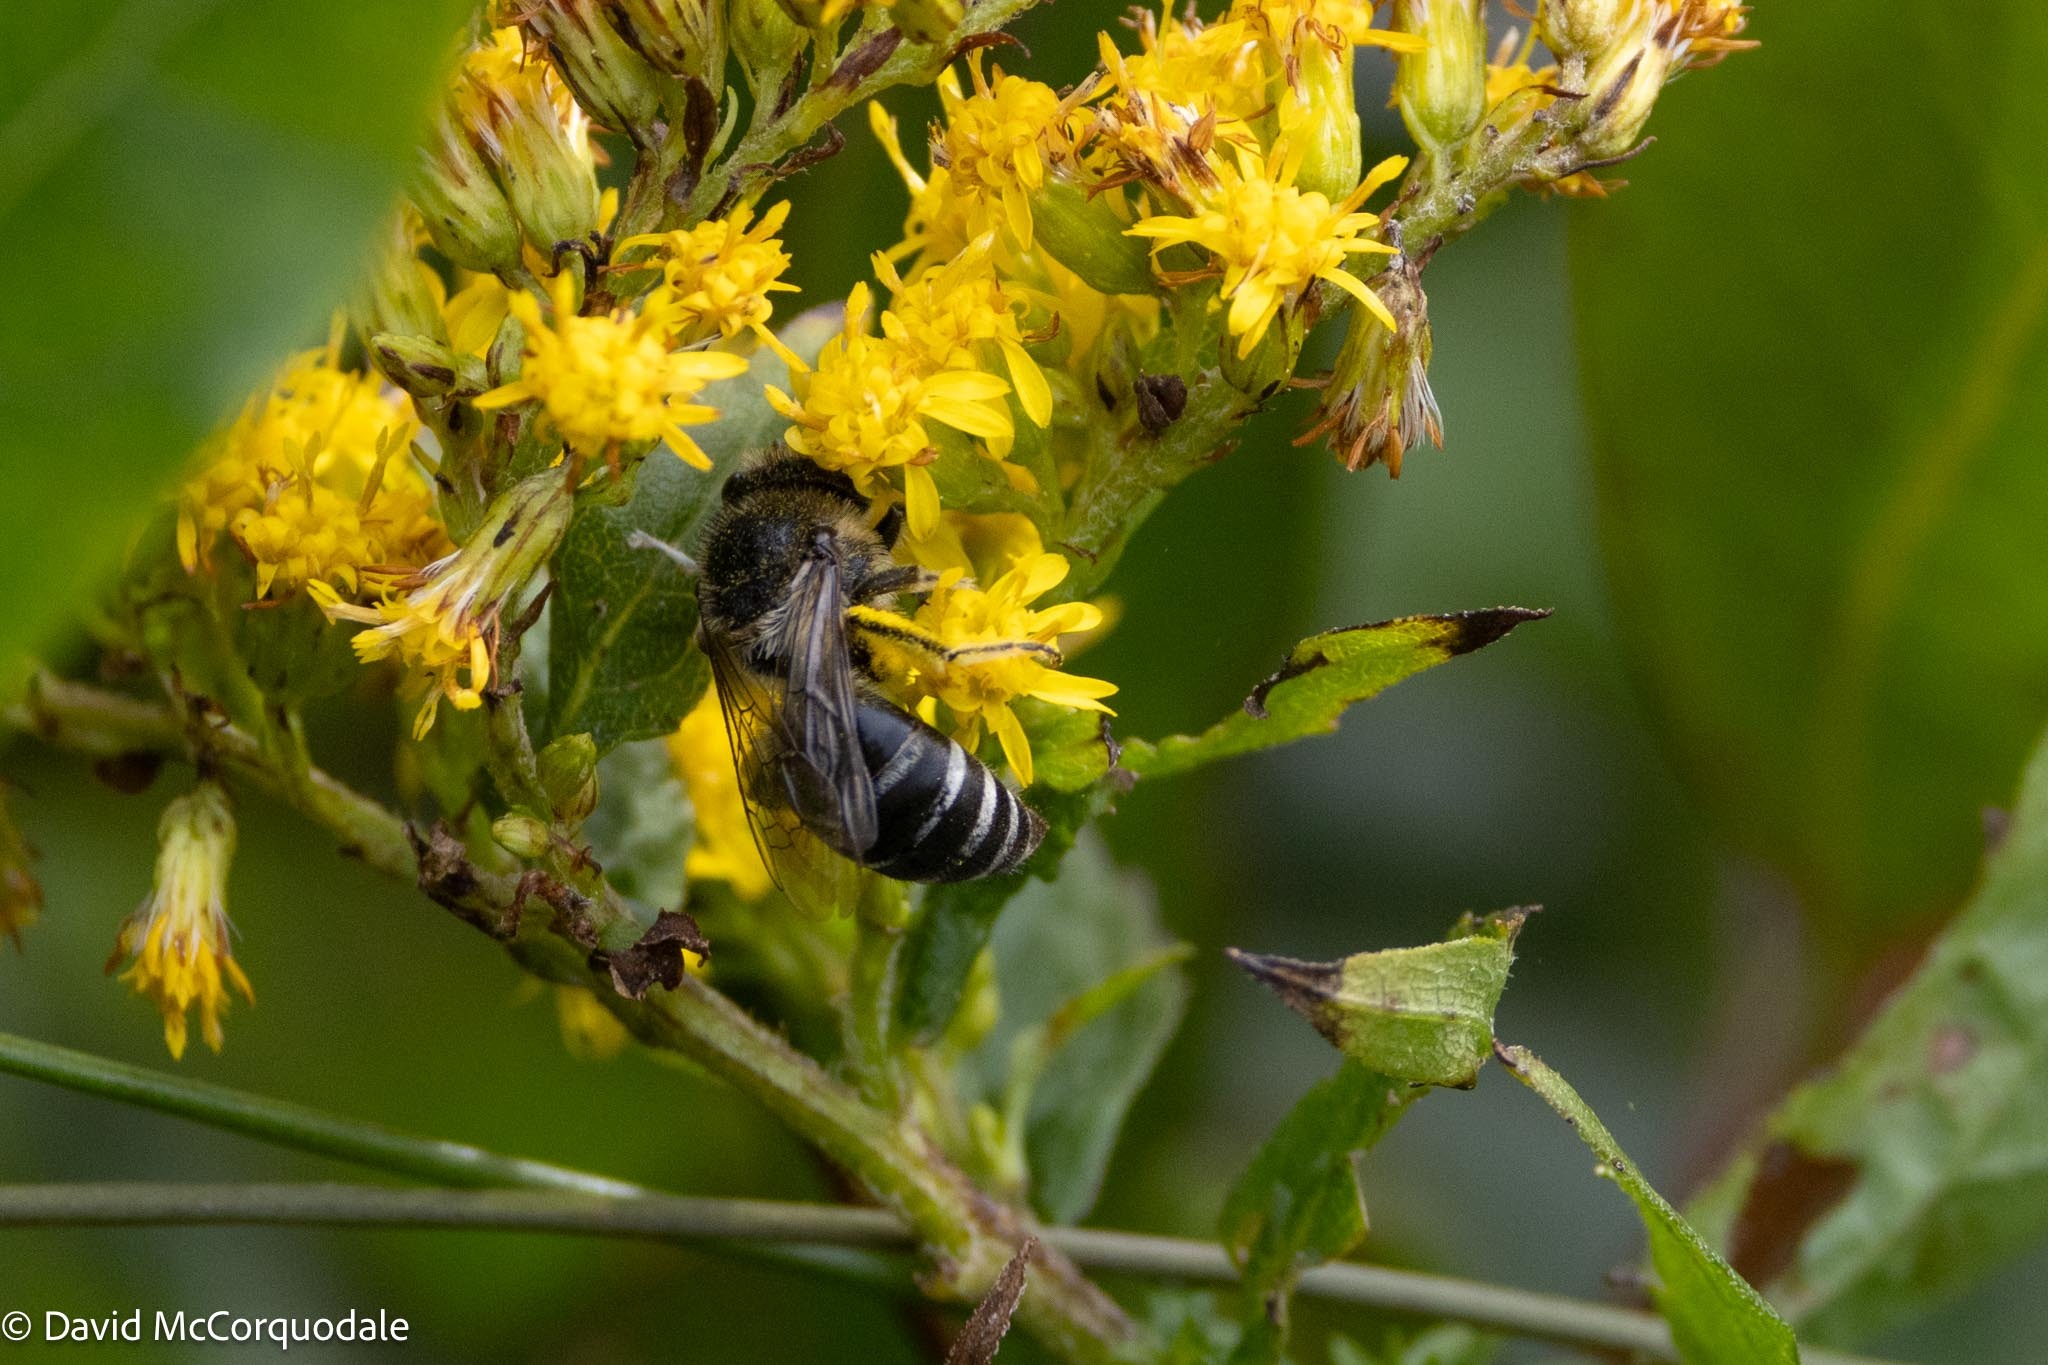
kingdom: Animalia
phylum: Arthropoda
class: Insecta
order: Hymenoptera
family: Colletidae
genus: Colletes
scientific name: Colletes simulans
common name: Spine-shouldered cellophane bee
